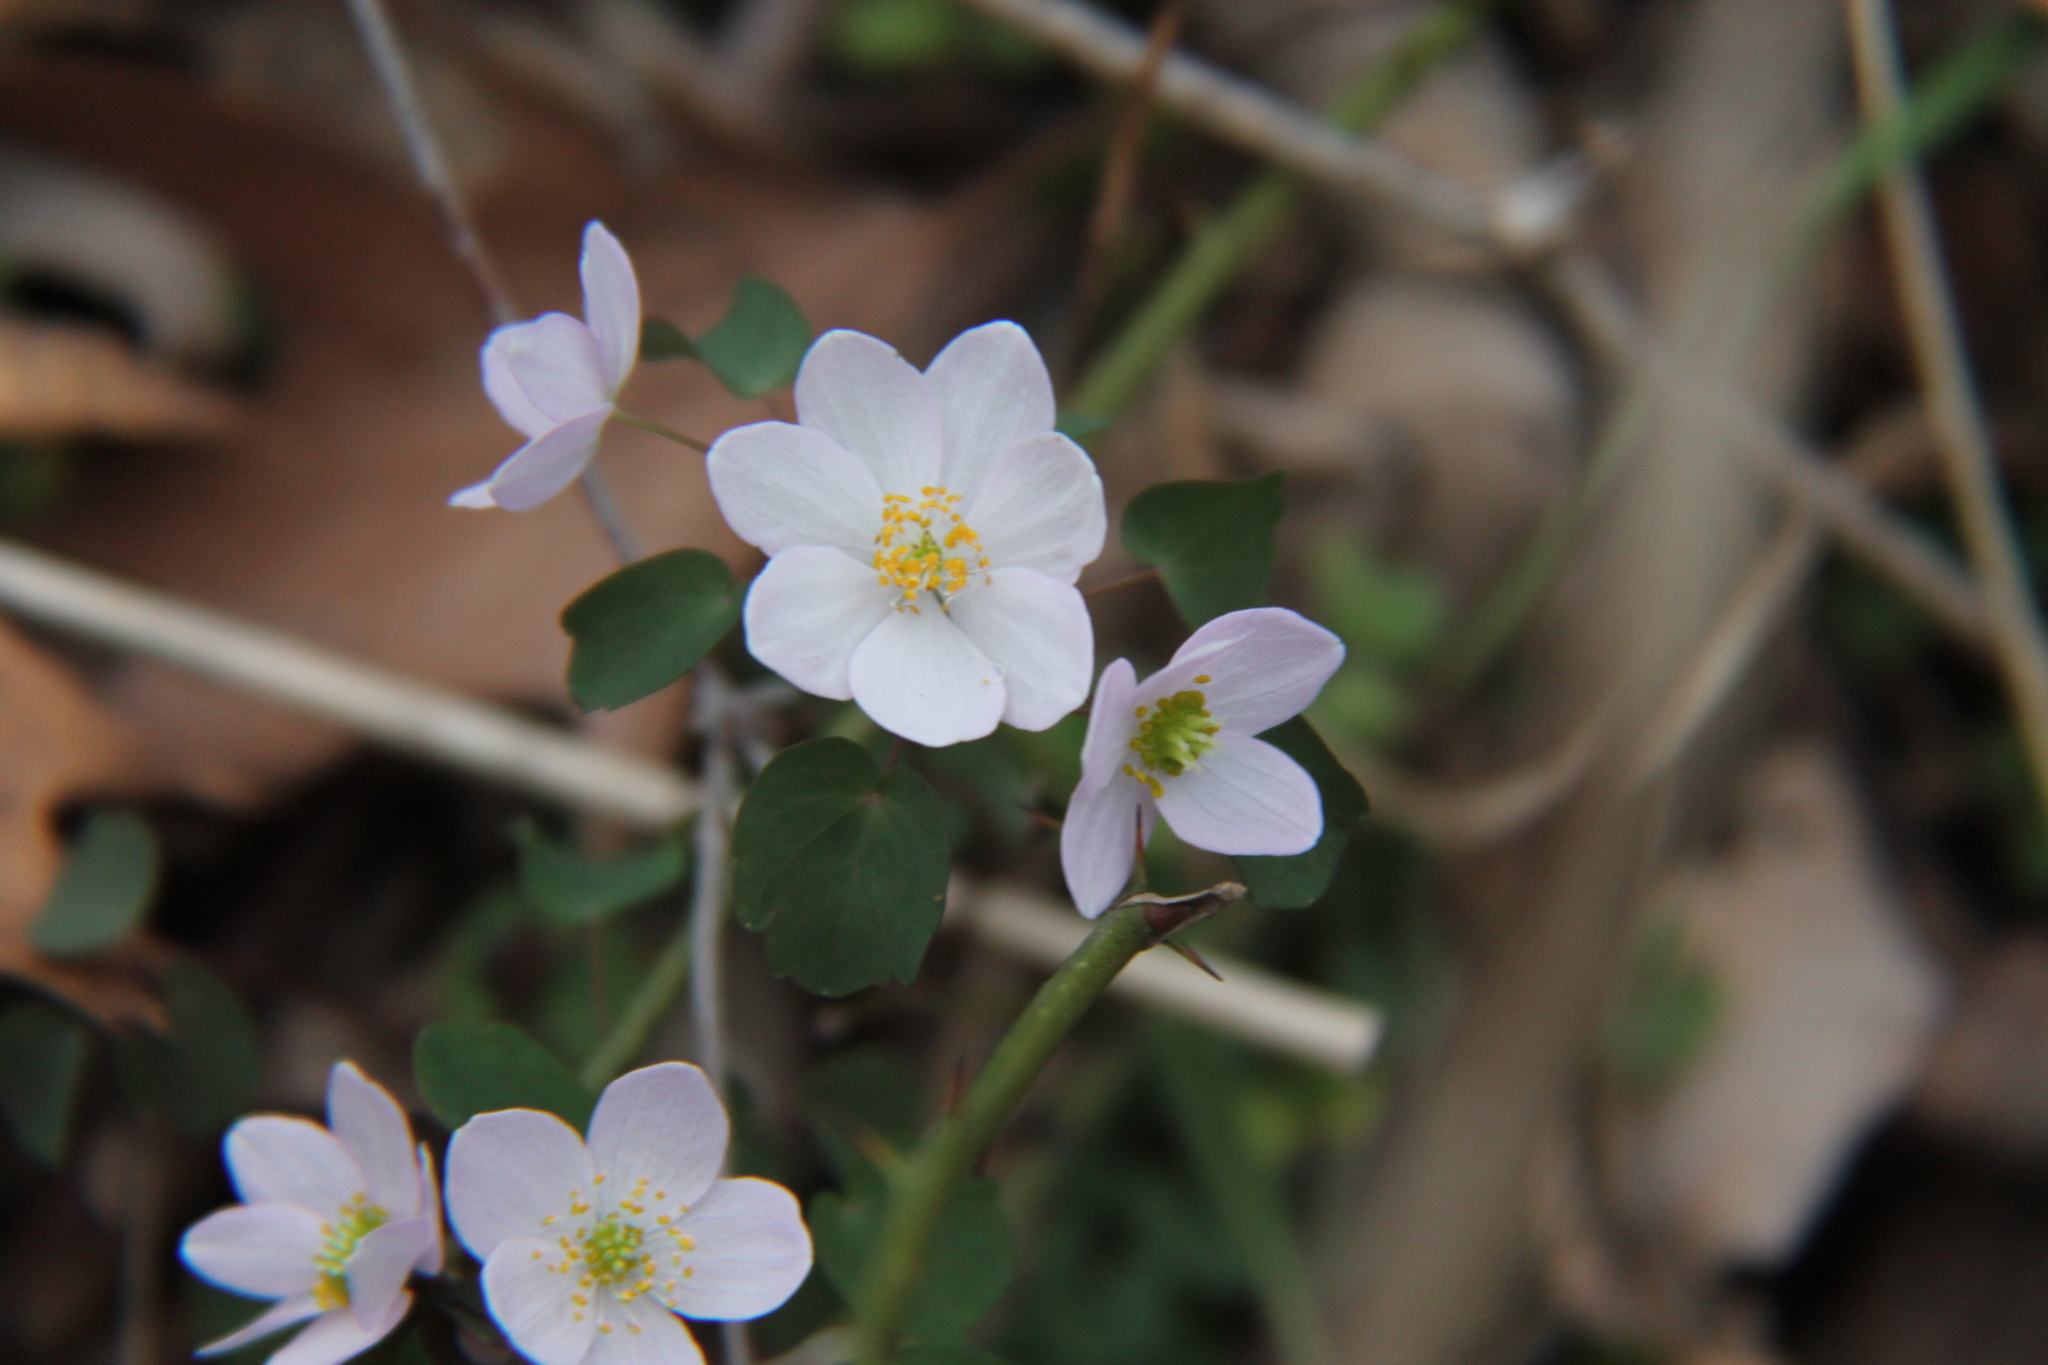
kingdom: Plantae
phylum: Tracheophyta
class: Magnoliopsida
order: Ranunculales
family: Ranunculaceae
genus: Thalictrum
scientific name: Thalictrum thalictroides
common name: Rue-anemone
